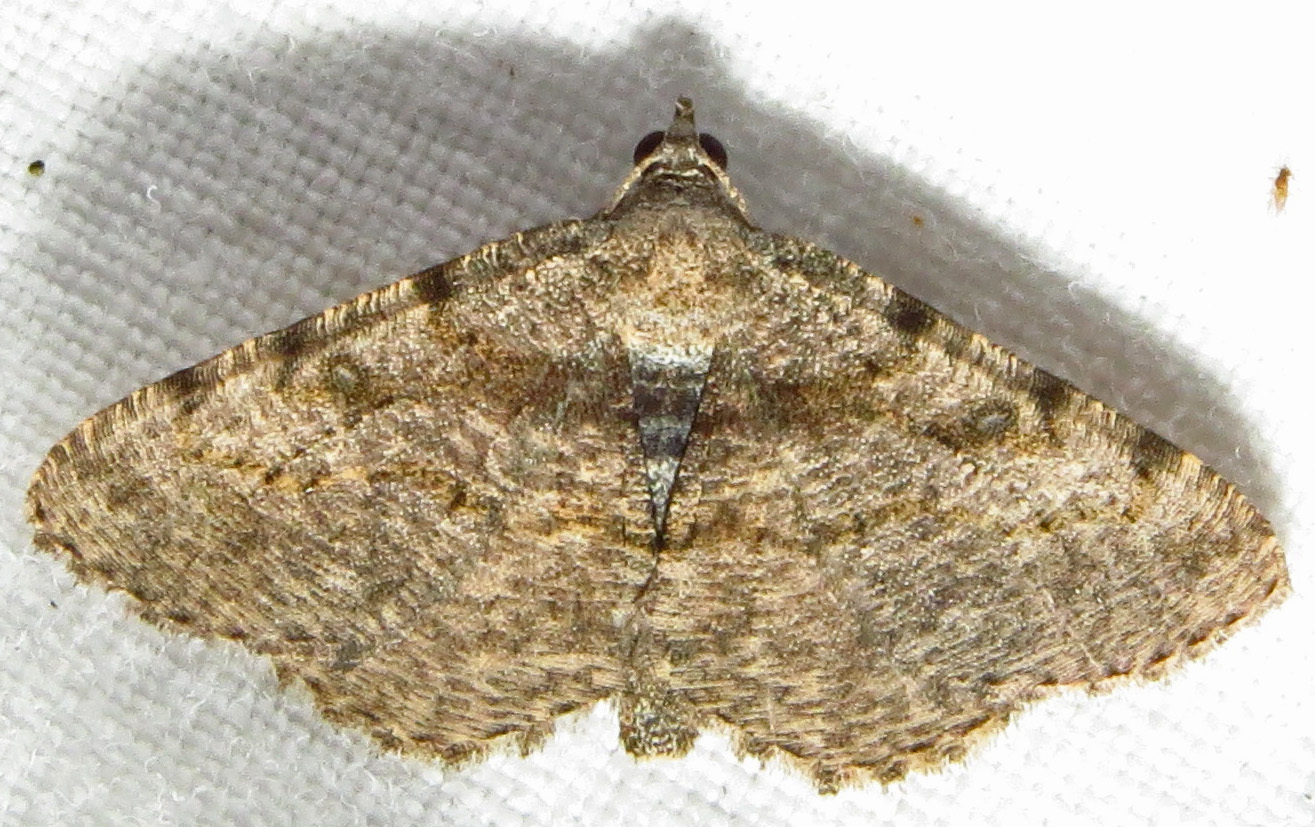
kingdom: Animalia
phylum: Arthropoda
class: Insecta
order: Lepidoptera
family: Geometridae
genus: Digrammia
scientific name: Digrammia gnophosaria
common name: Hollow-spotted angle
